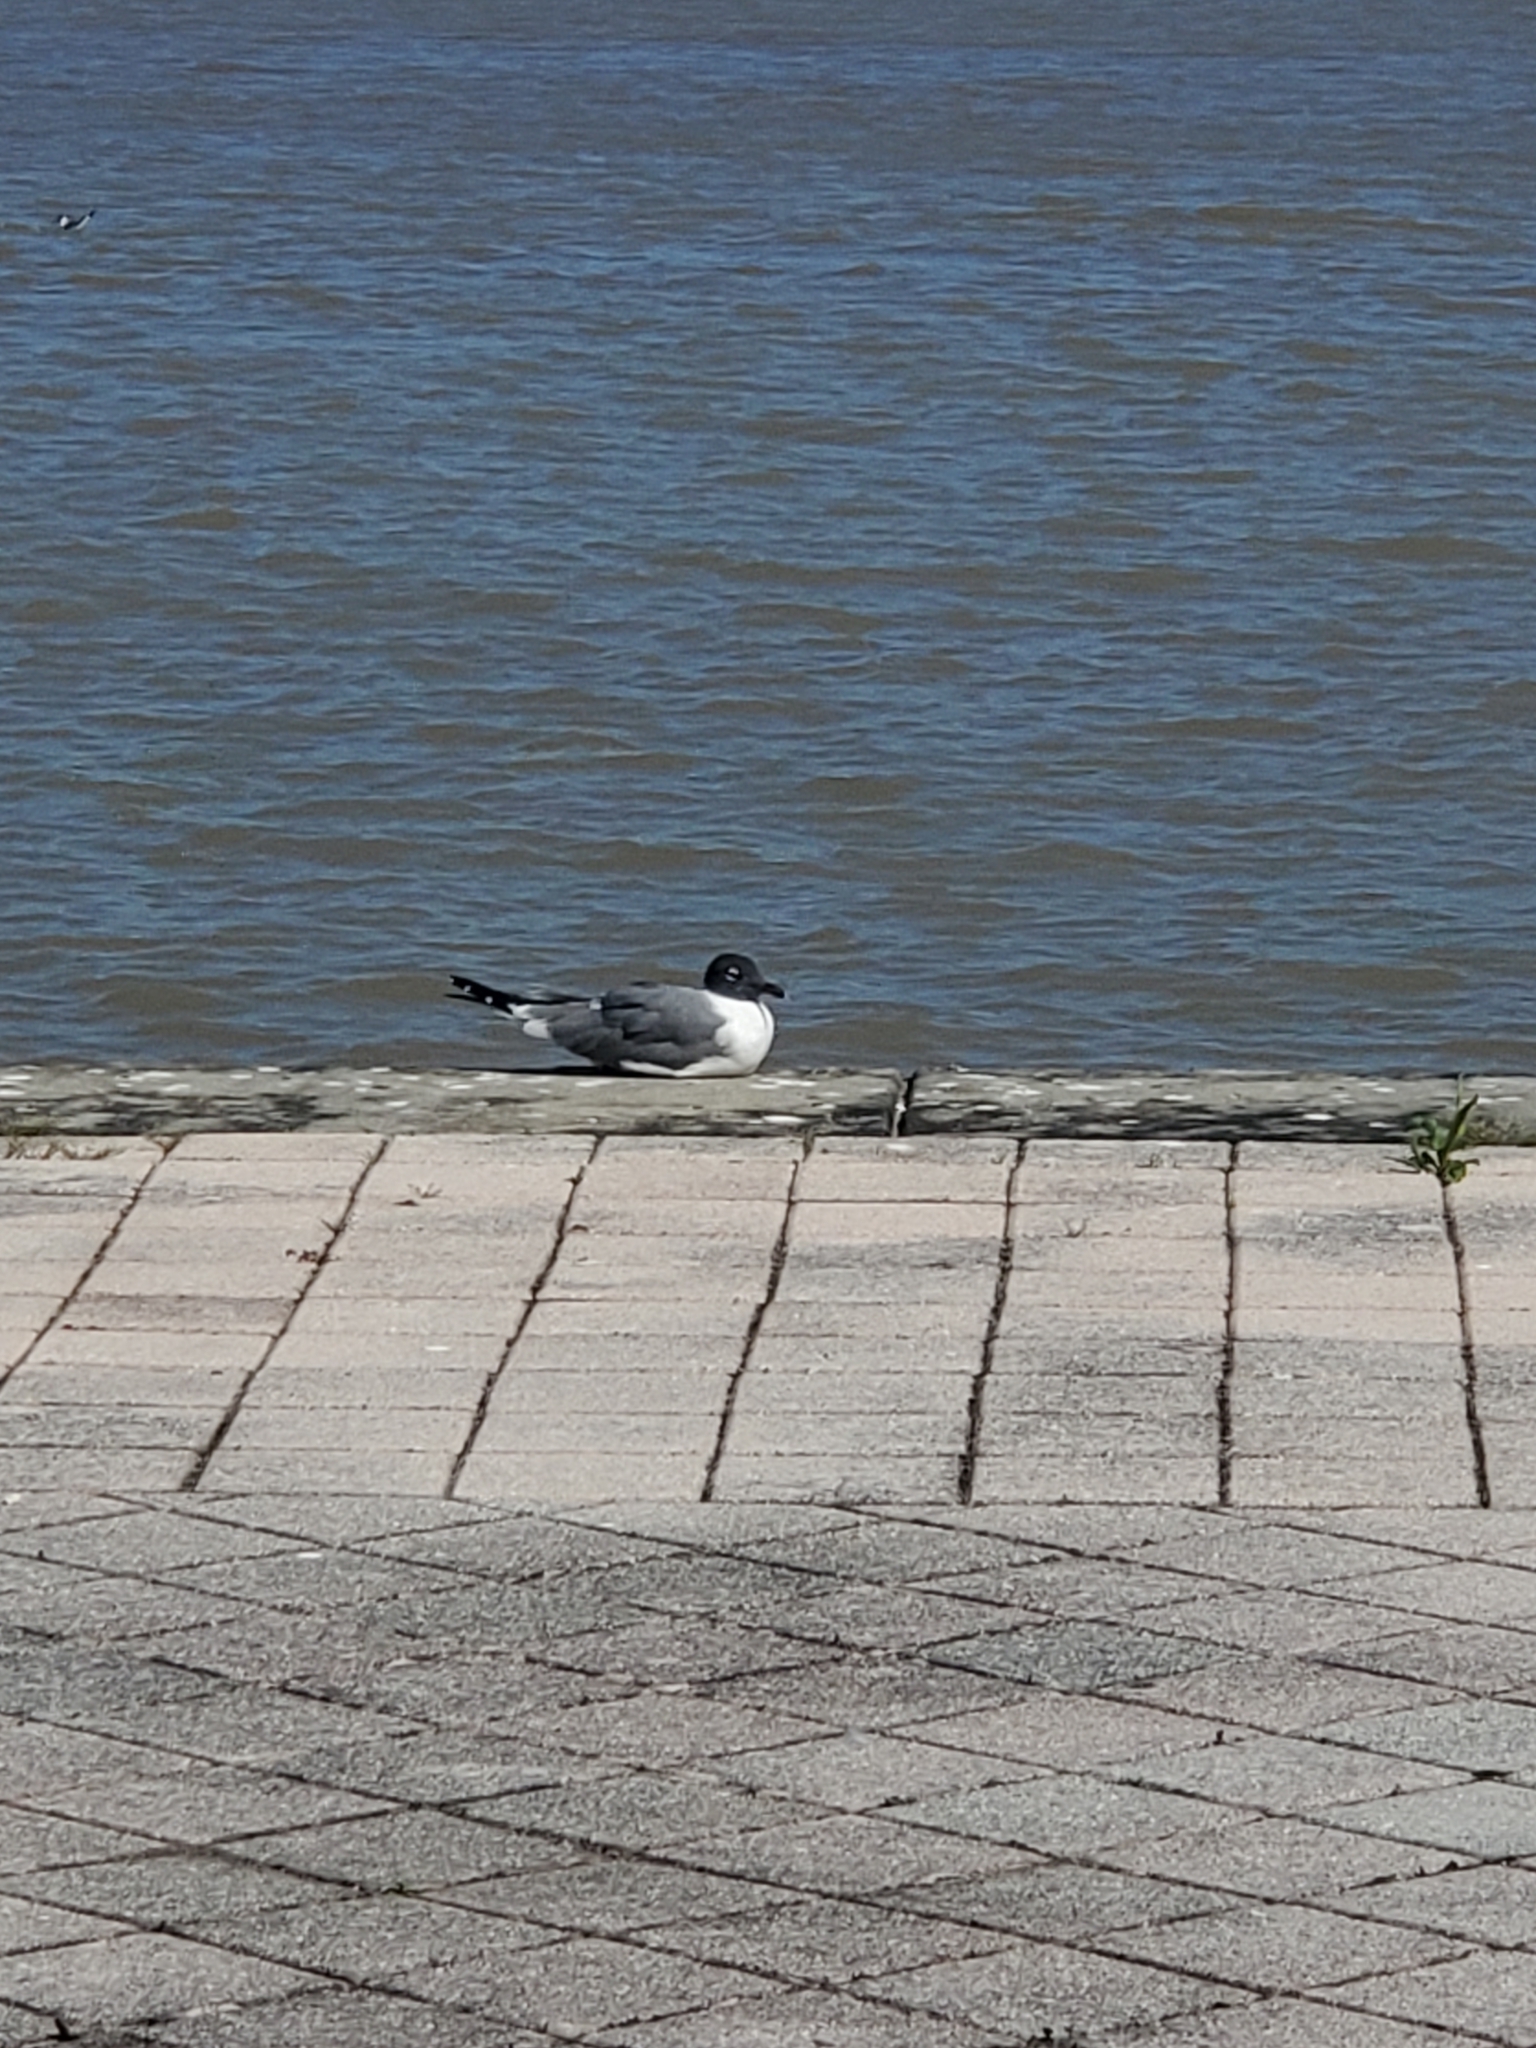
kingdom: Animalia
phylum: Chordata
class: Aves
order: Charadriiformes
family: Laridae
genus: Leucophaeus
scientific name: Leucophaeus atricilla
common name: Laughing gull
